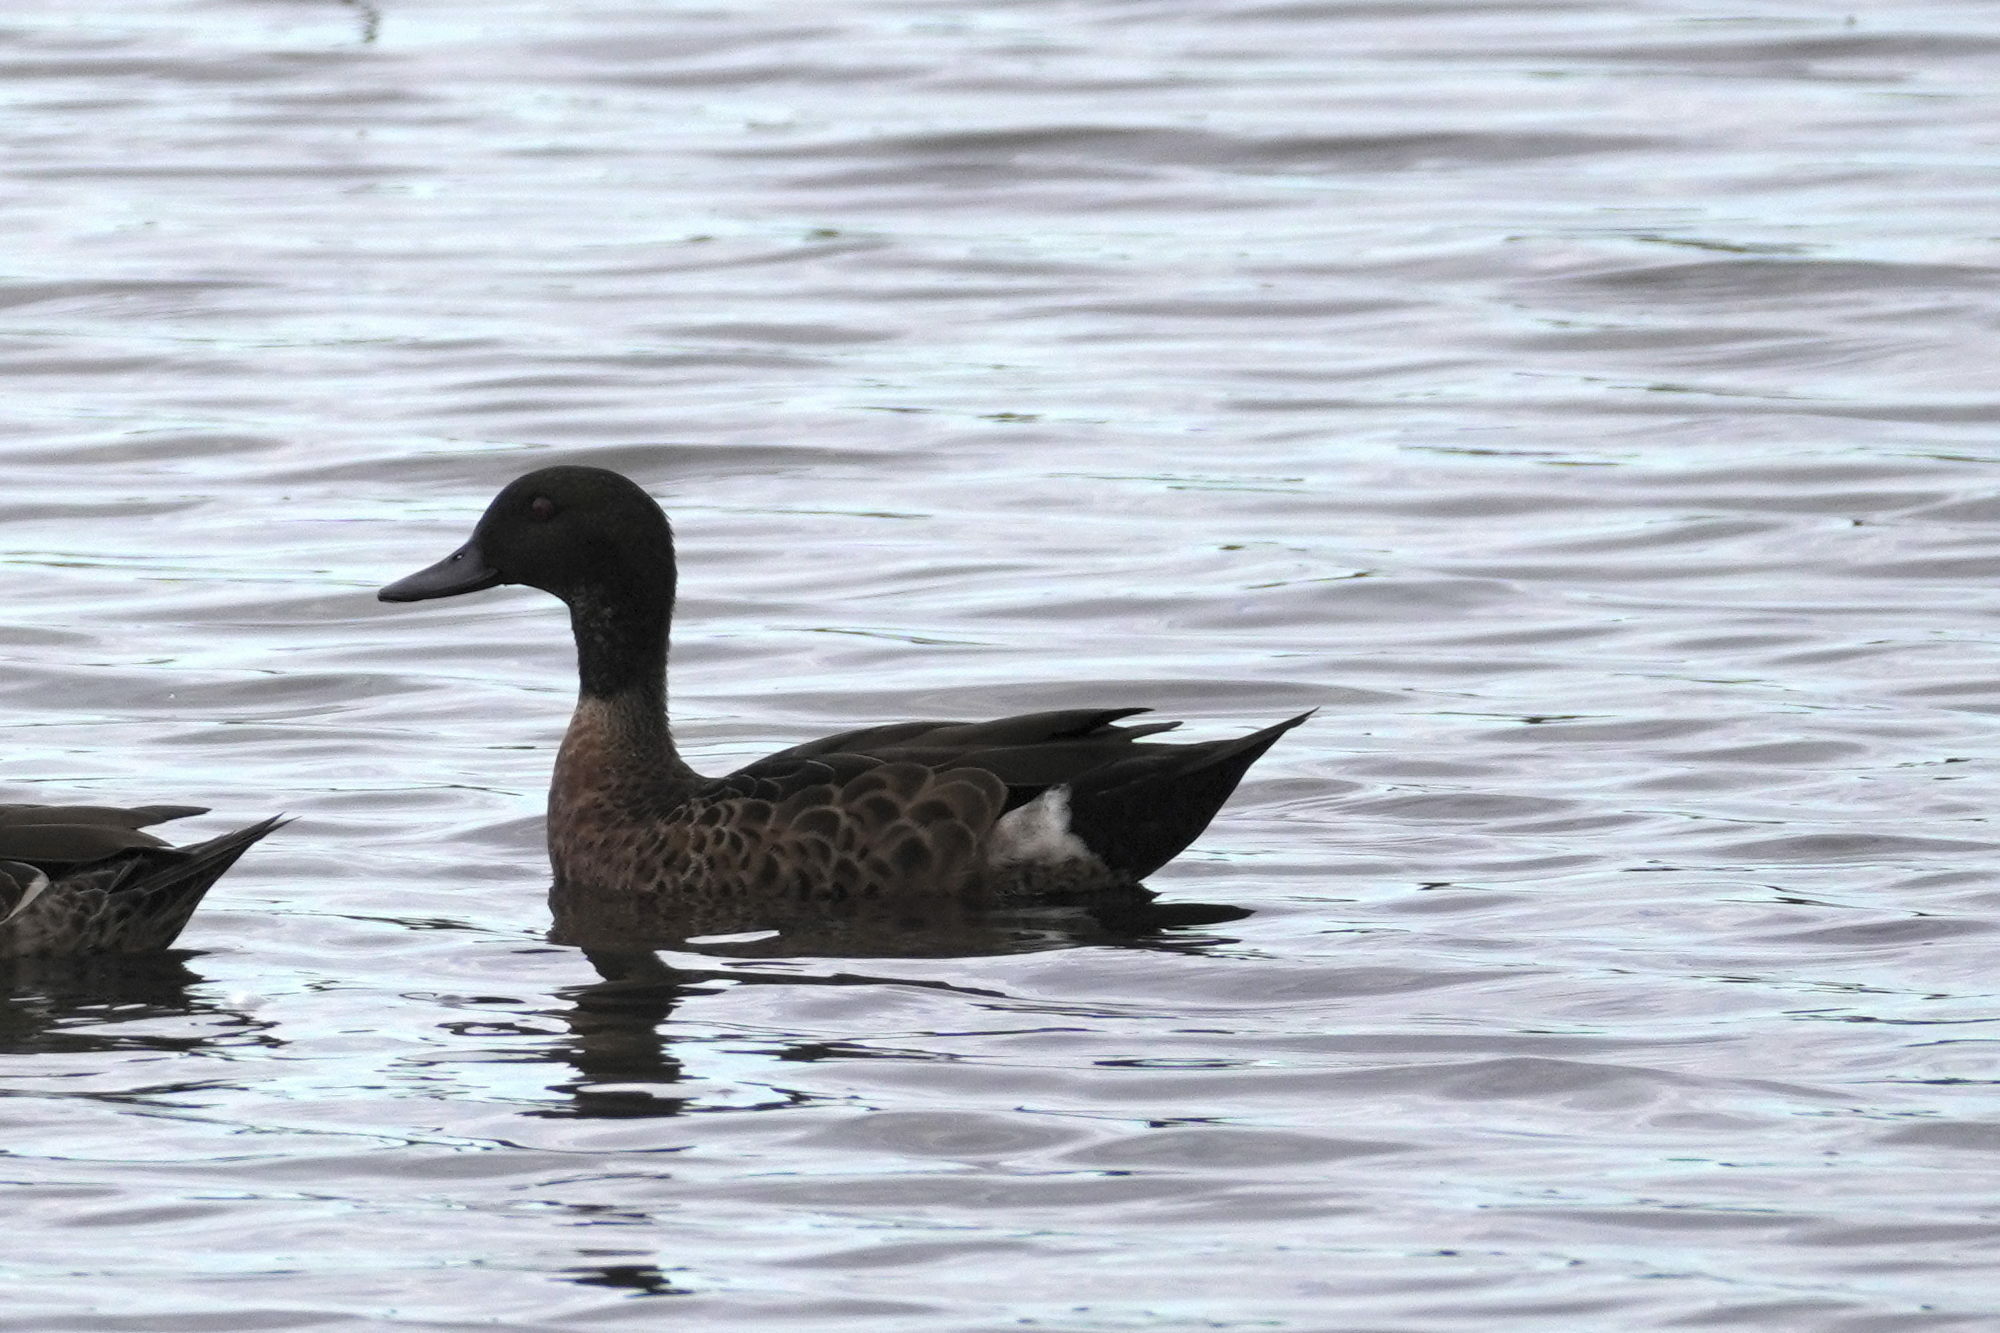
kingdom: Animalia
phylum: Chordata
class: Aves
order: Anseriformes
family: Anatidae
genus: Anas
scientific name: Anas castanea
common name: Chestnut teal
